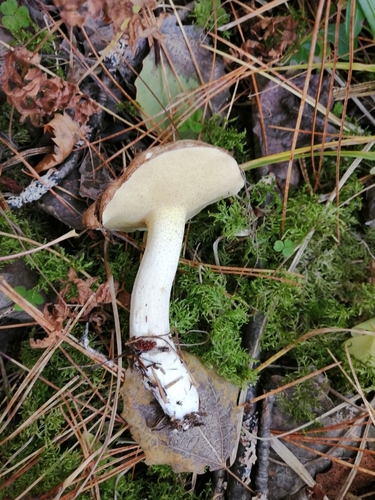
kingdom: Fungi
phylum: Basidiomycota
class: Agaricomycetes
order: Boletales
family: Suillaceae
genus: Suillus
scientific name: Suillus placidus
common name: Slippery white bolete
